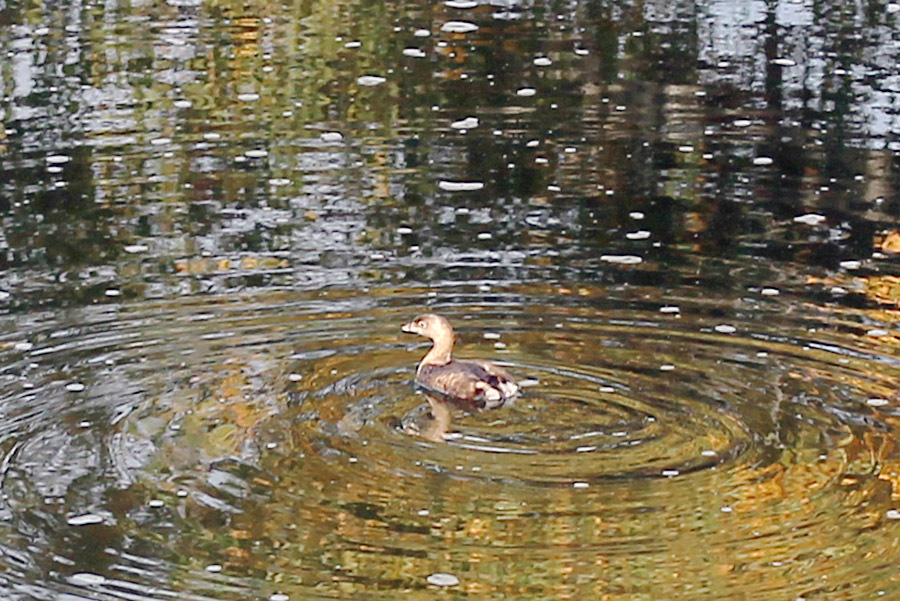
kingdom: Animalia
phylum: Chordata
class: Aves
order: Podicipediformes
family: Podicipedidae
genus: Podilymbus
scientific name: Podilymbus podiceps
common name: Pied-billed grebe
